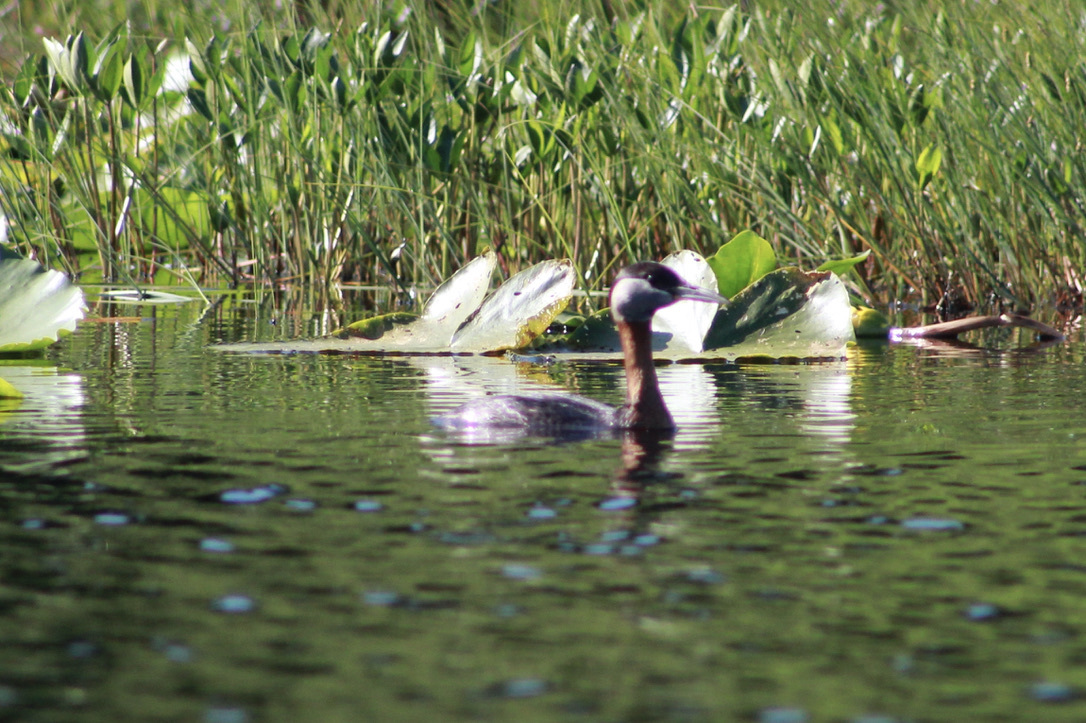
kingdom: Animalia
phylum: Chordata
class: Aves
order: Podicipediformes
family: Podicipedidae
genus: Podiceps
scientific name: Podiceps grisegena
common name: Red-necked grebe
